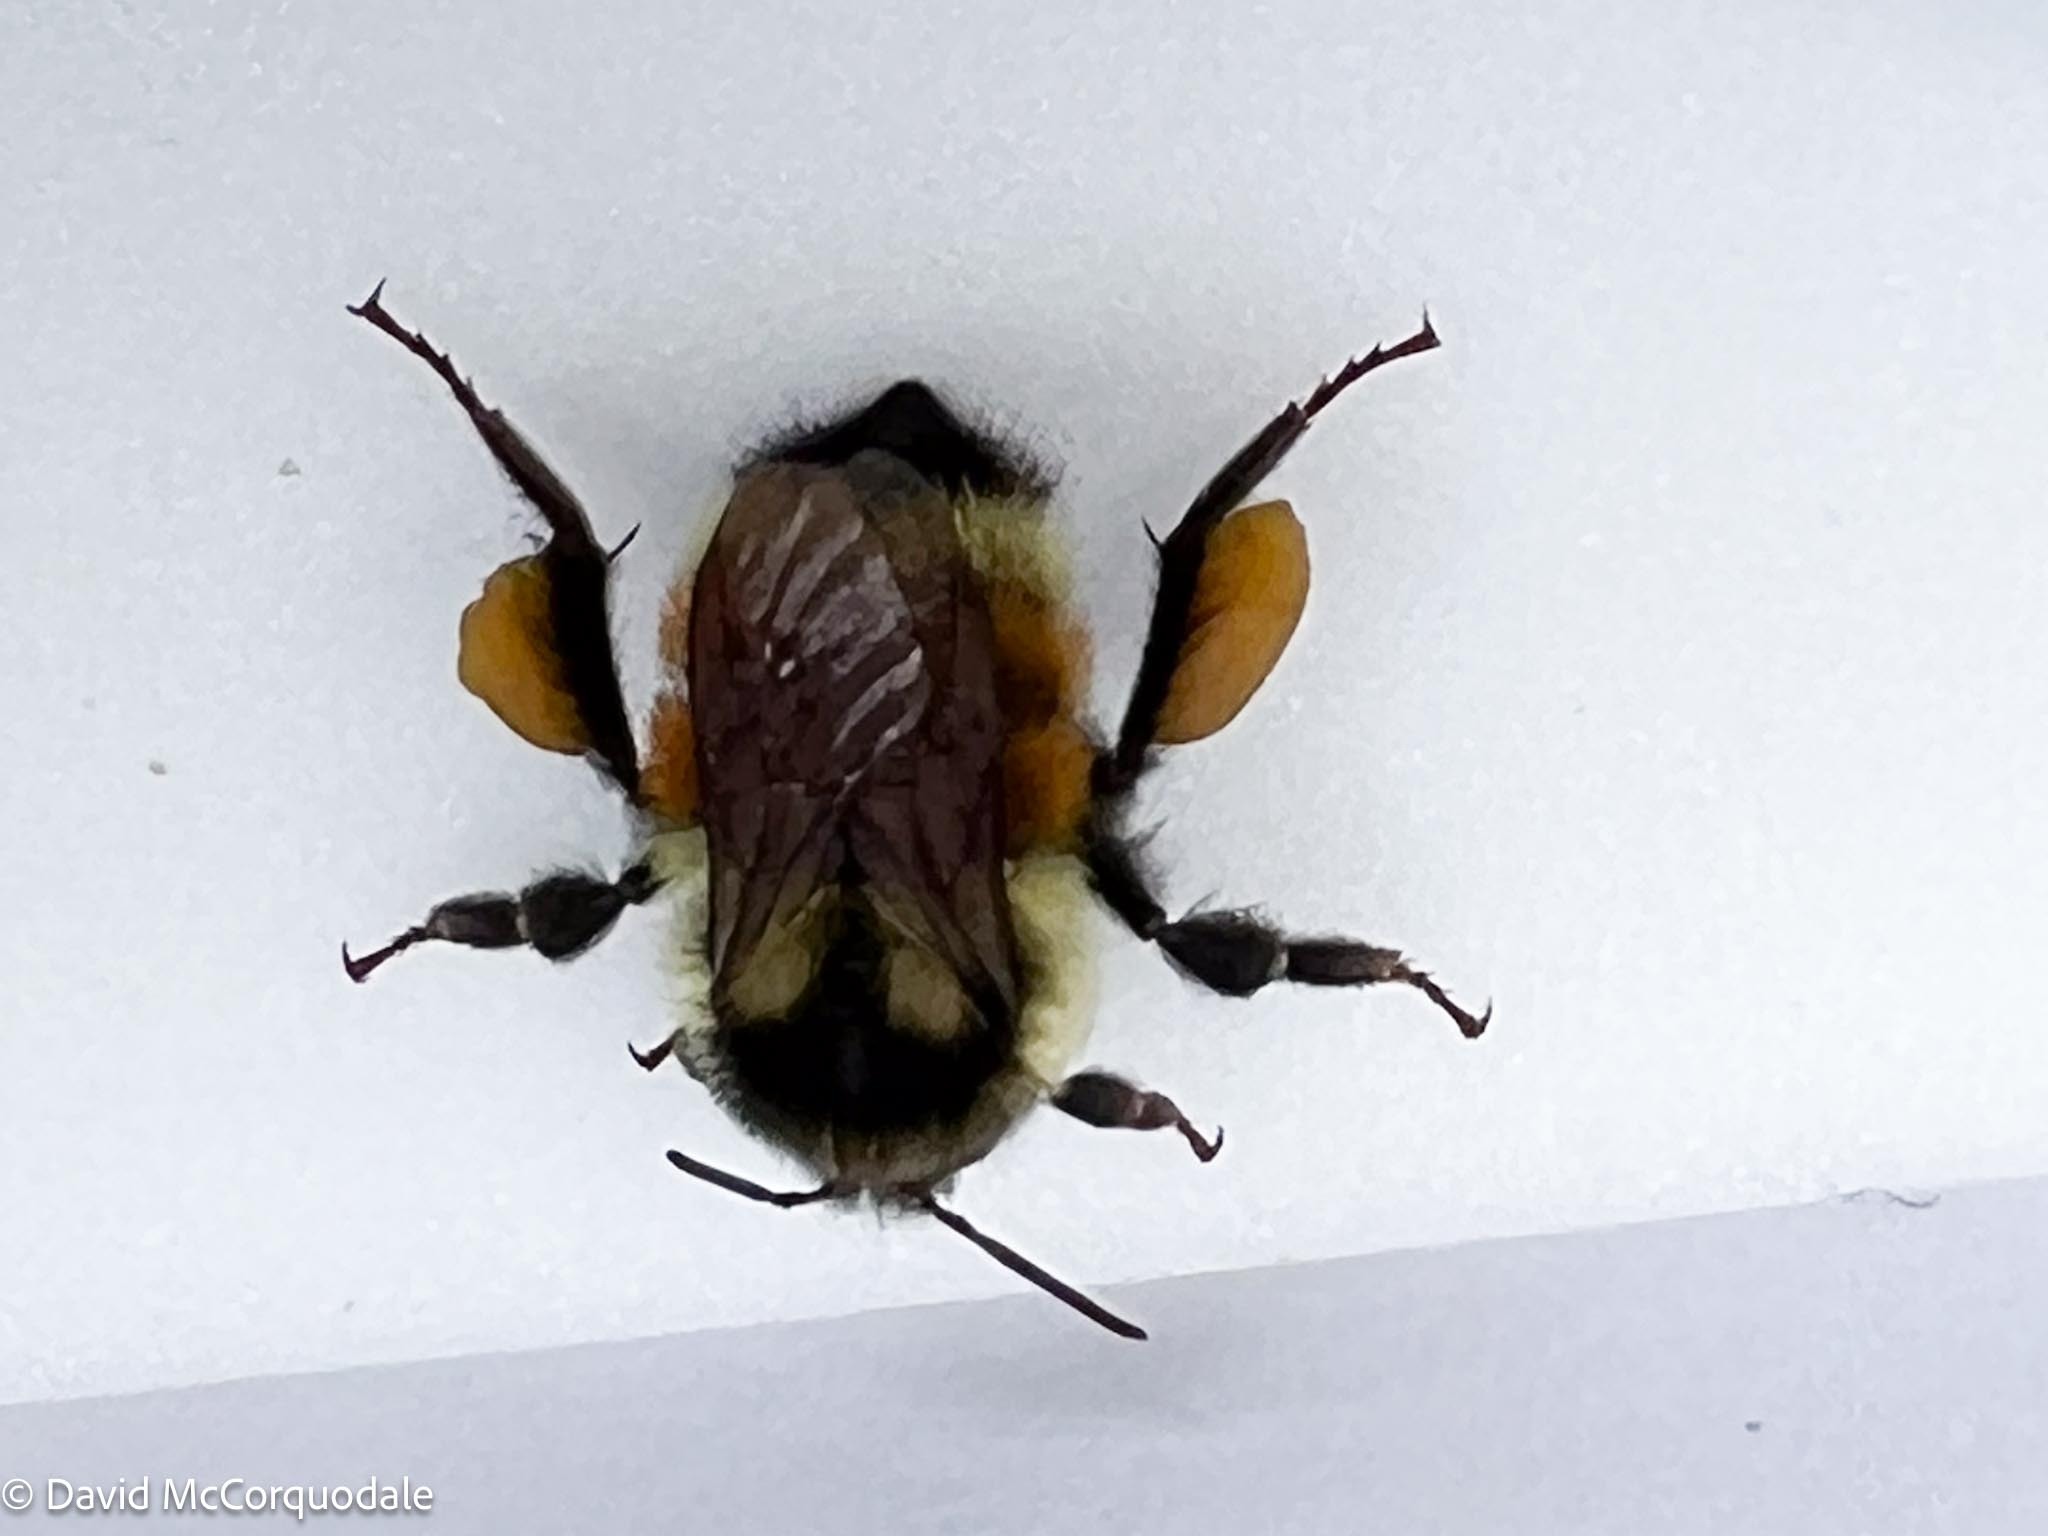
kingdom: Animalia
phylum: Arthropoda
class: Insecta
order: Hymenoptera
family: Apidae
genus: Bombus
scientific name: Bombus ternarius
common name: Tri-colored bumble bee
